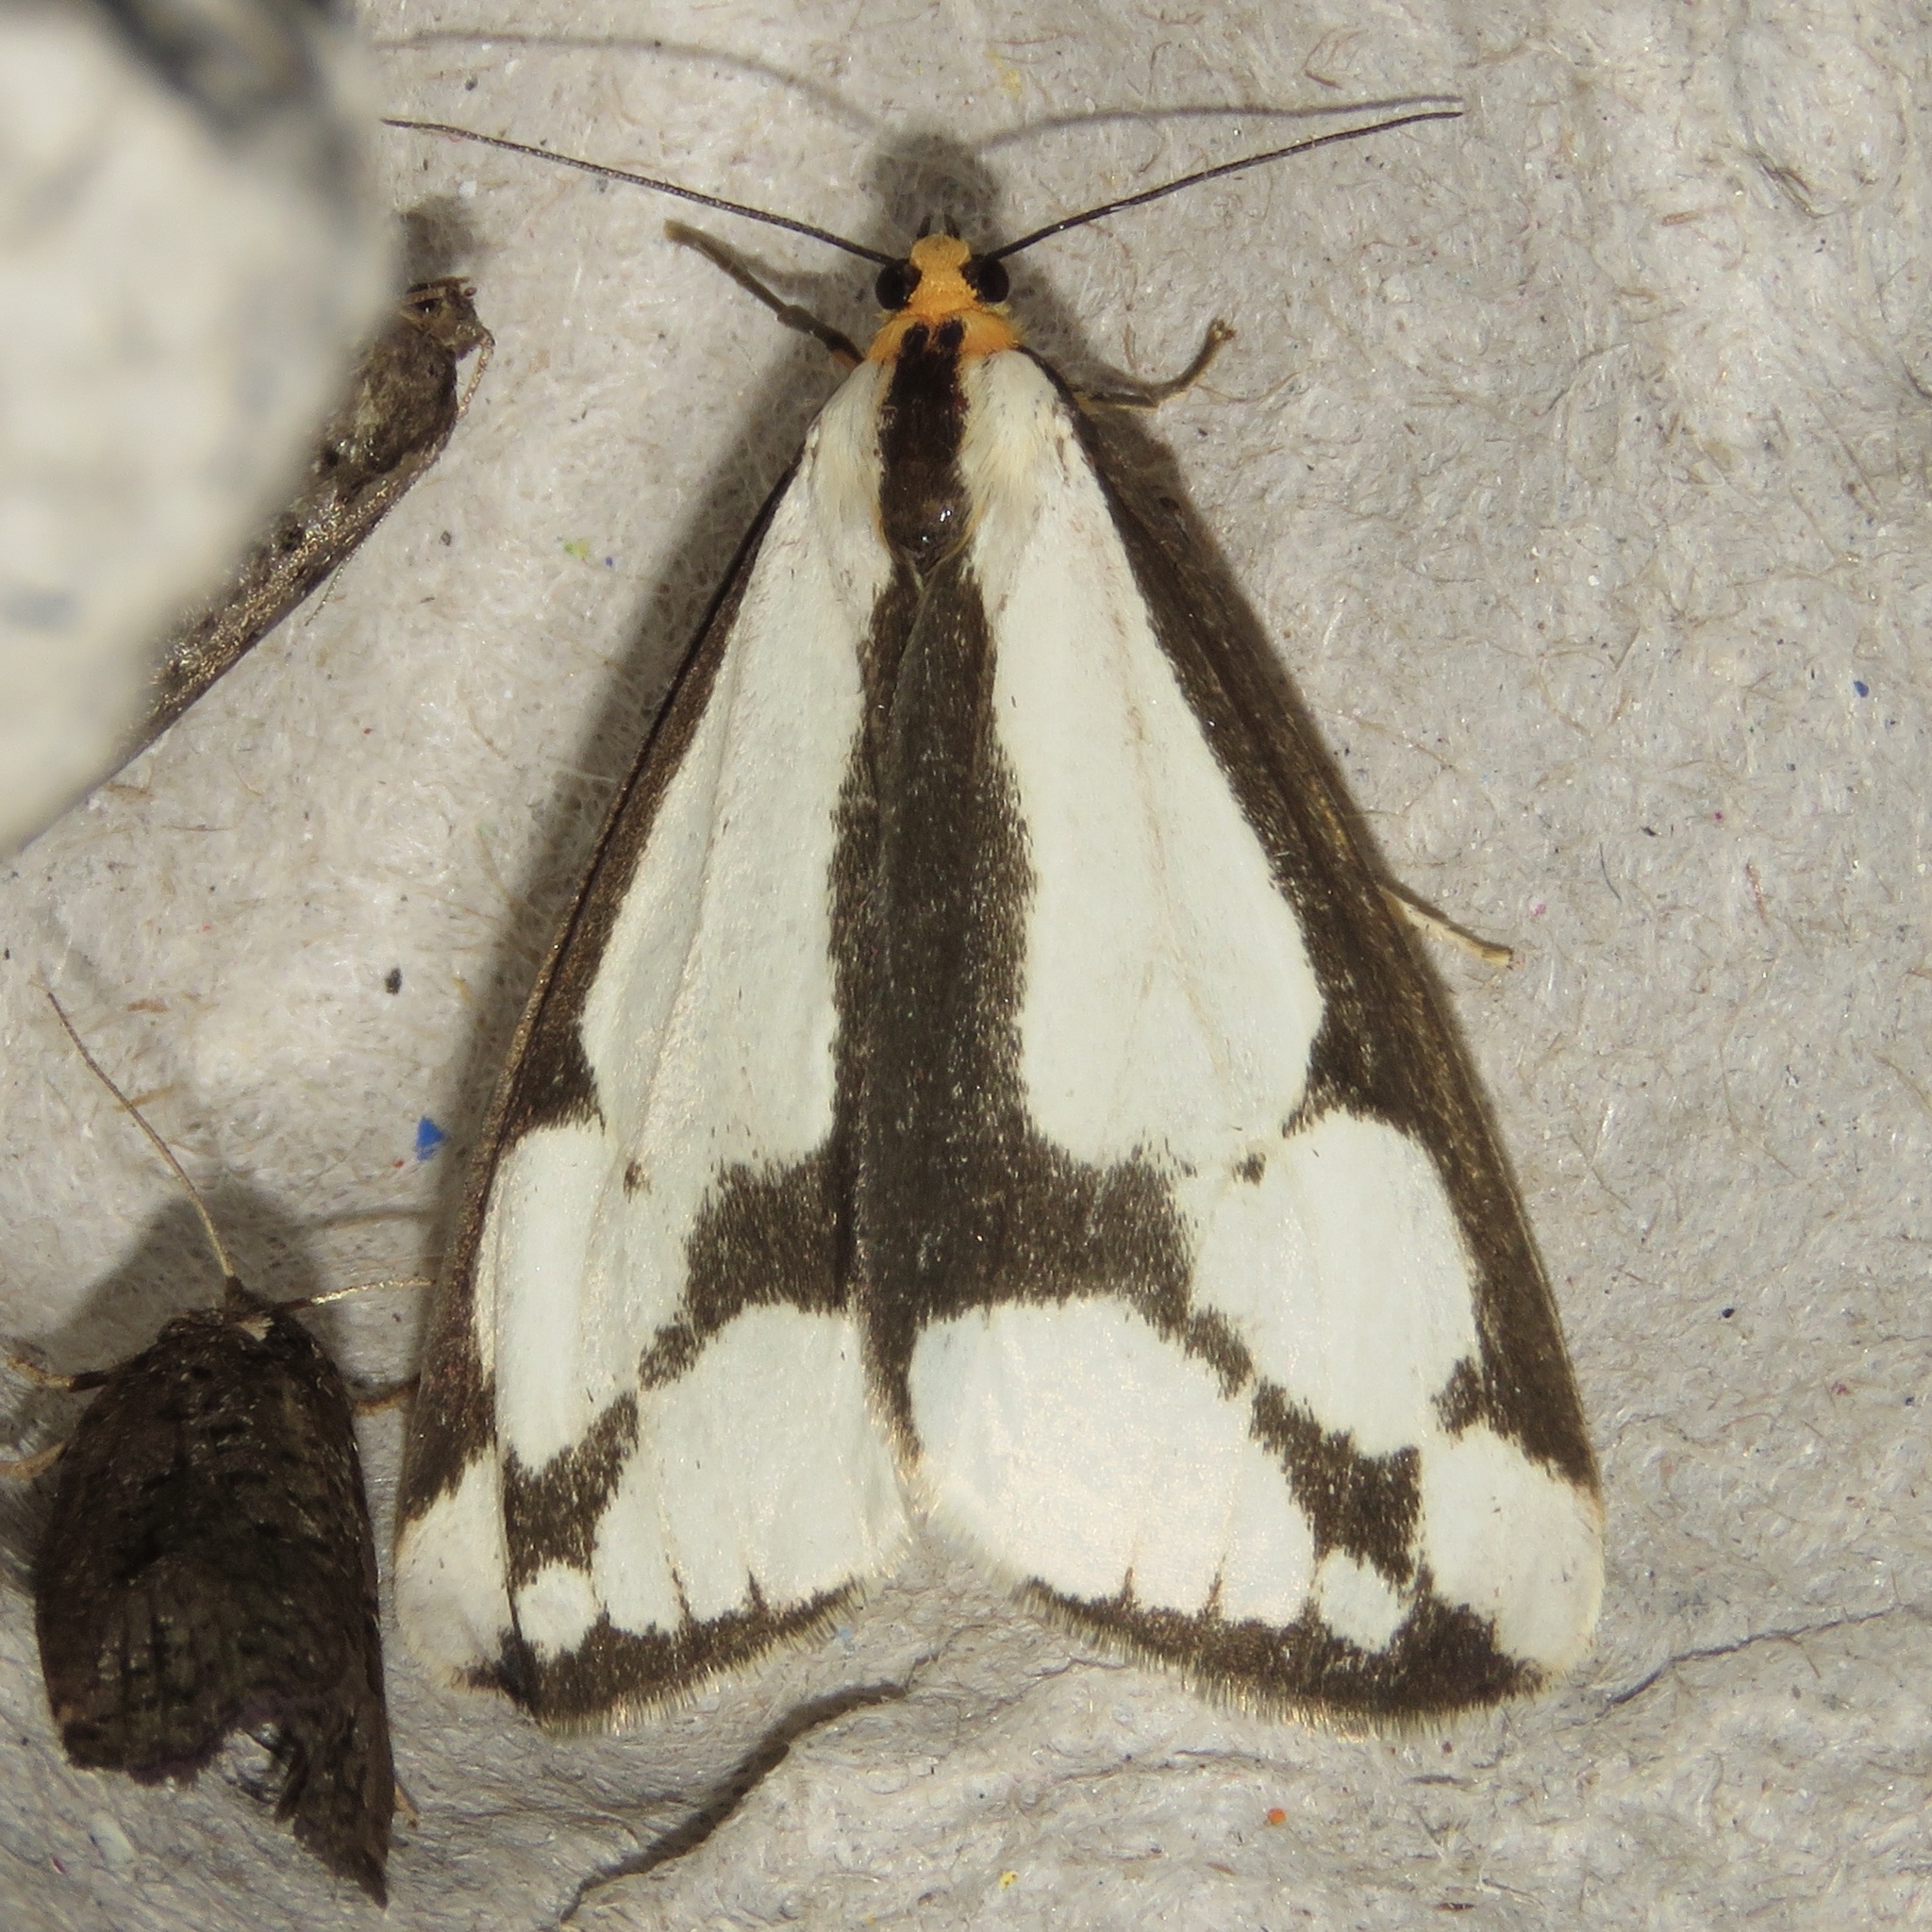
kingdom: Animalia
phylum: Arthropoda
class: Insecta
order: Lepidoptera
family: Erebidae
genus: Haploa
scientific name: Haploa lecontei
